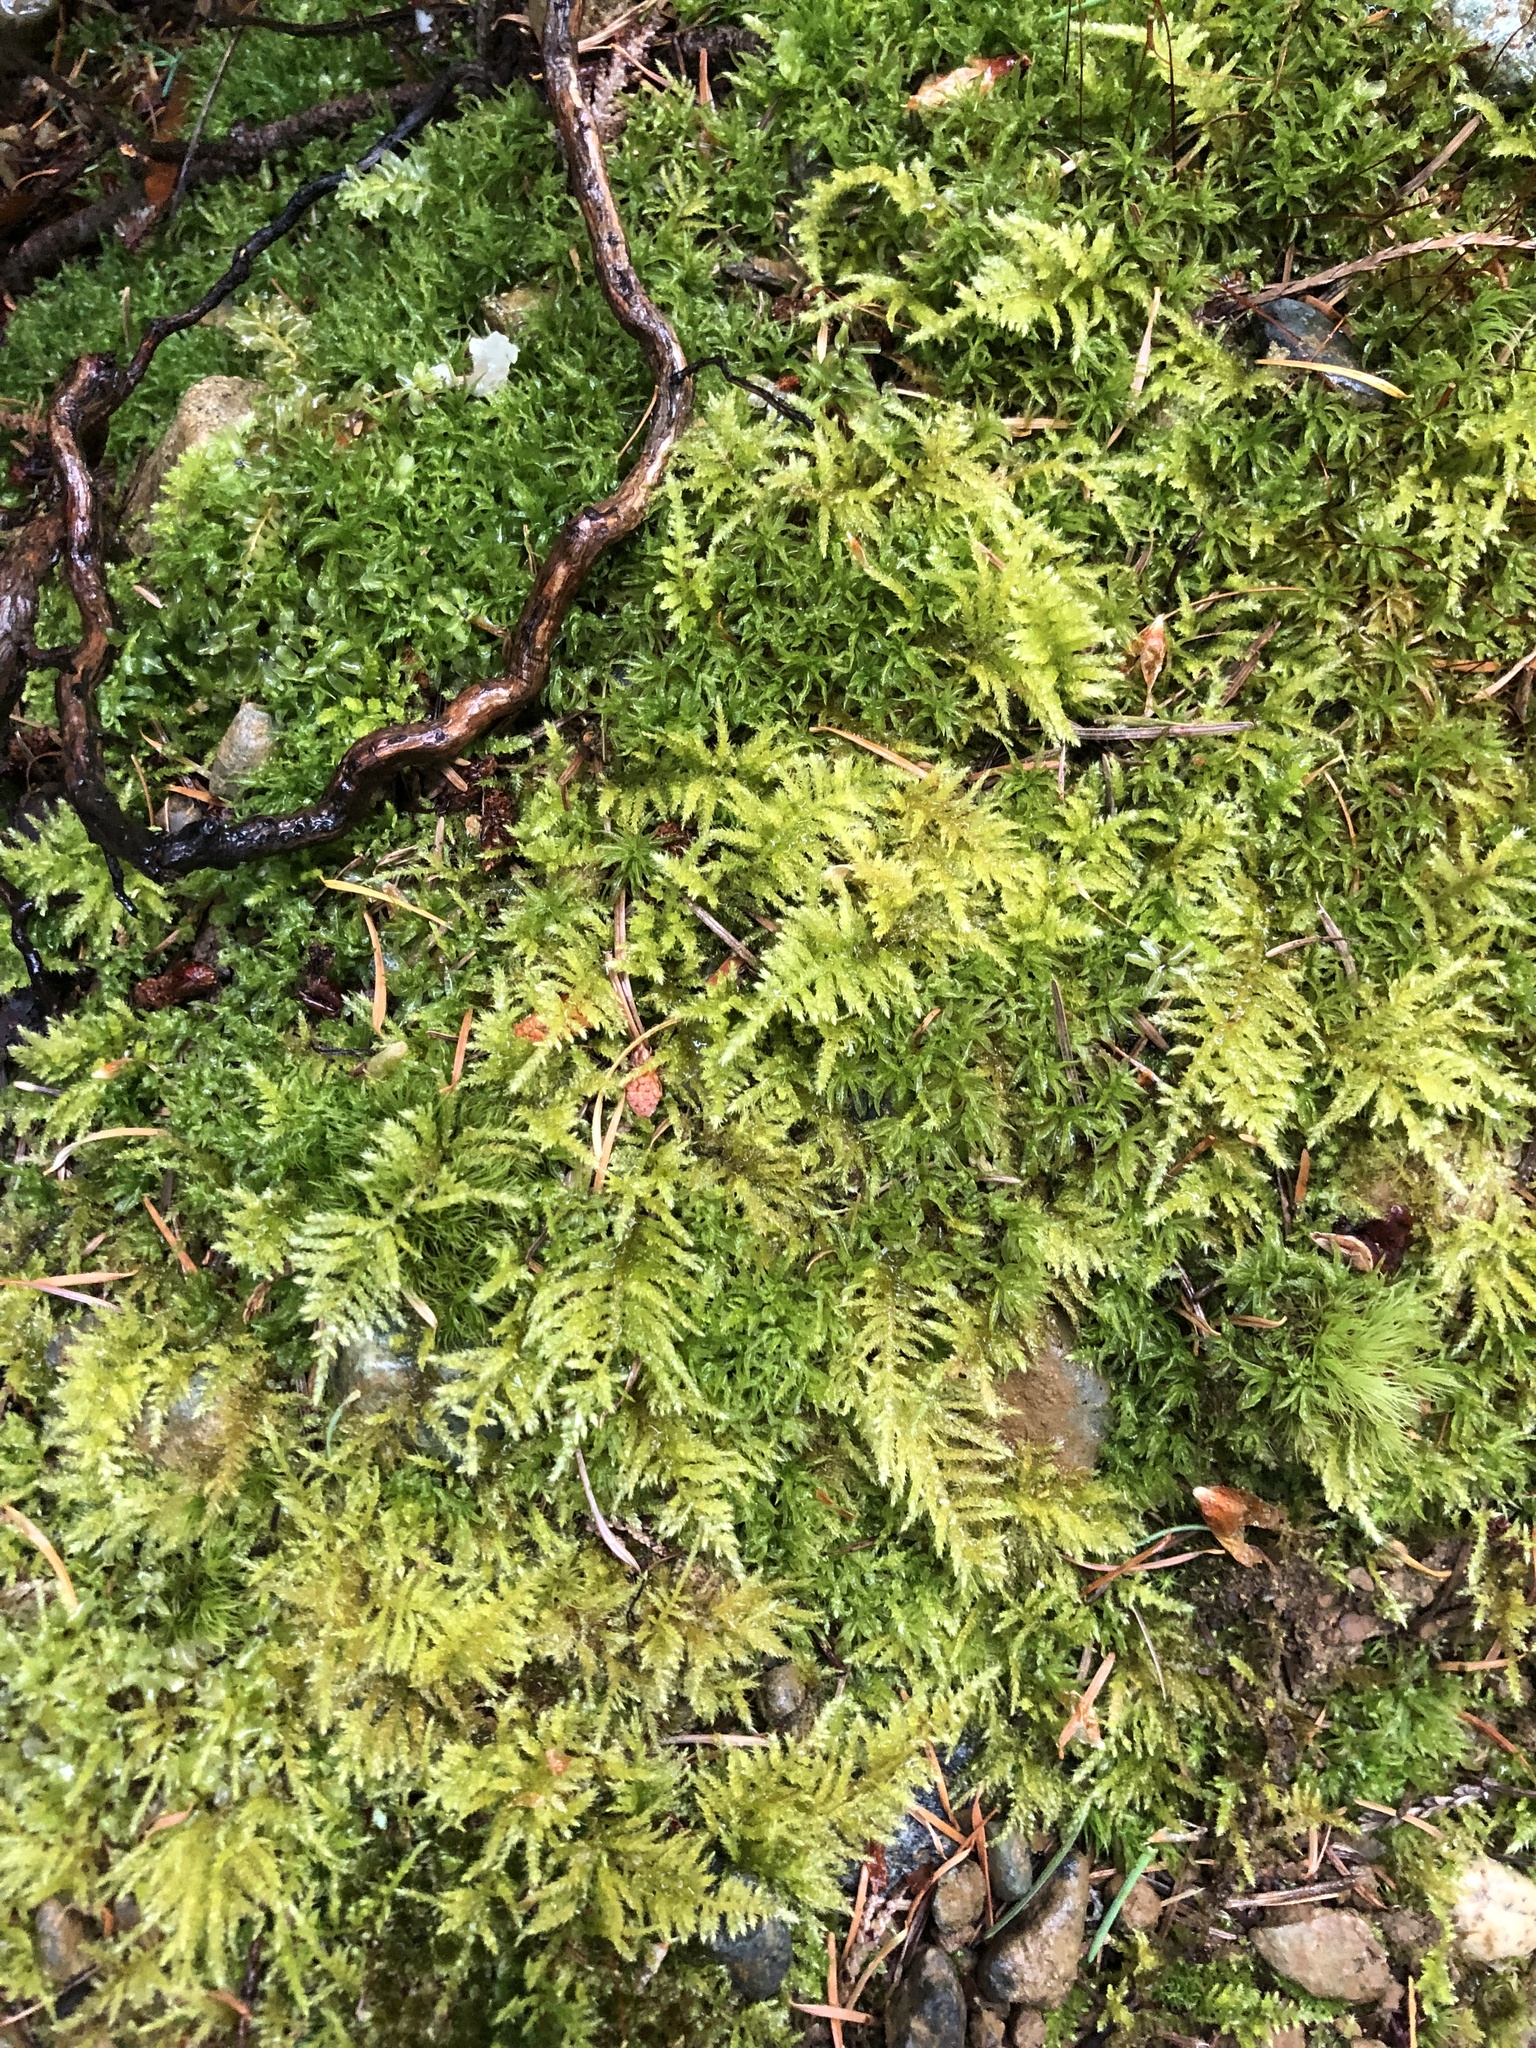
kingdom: Plantae
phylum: Bryophyta
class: Bryopsida
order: Hypnales
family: Brachytheciaceae
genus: Kindbergia
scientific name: Kindbergia oregana
